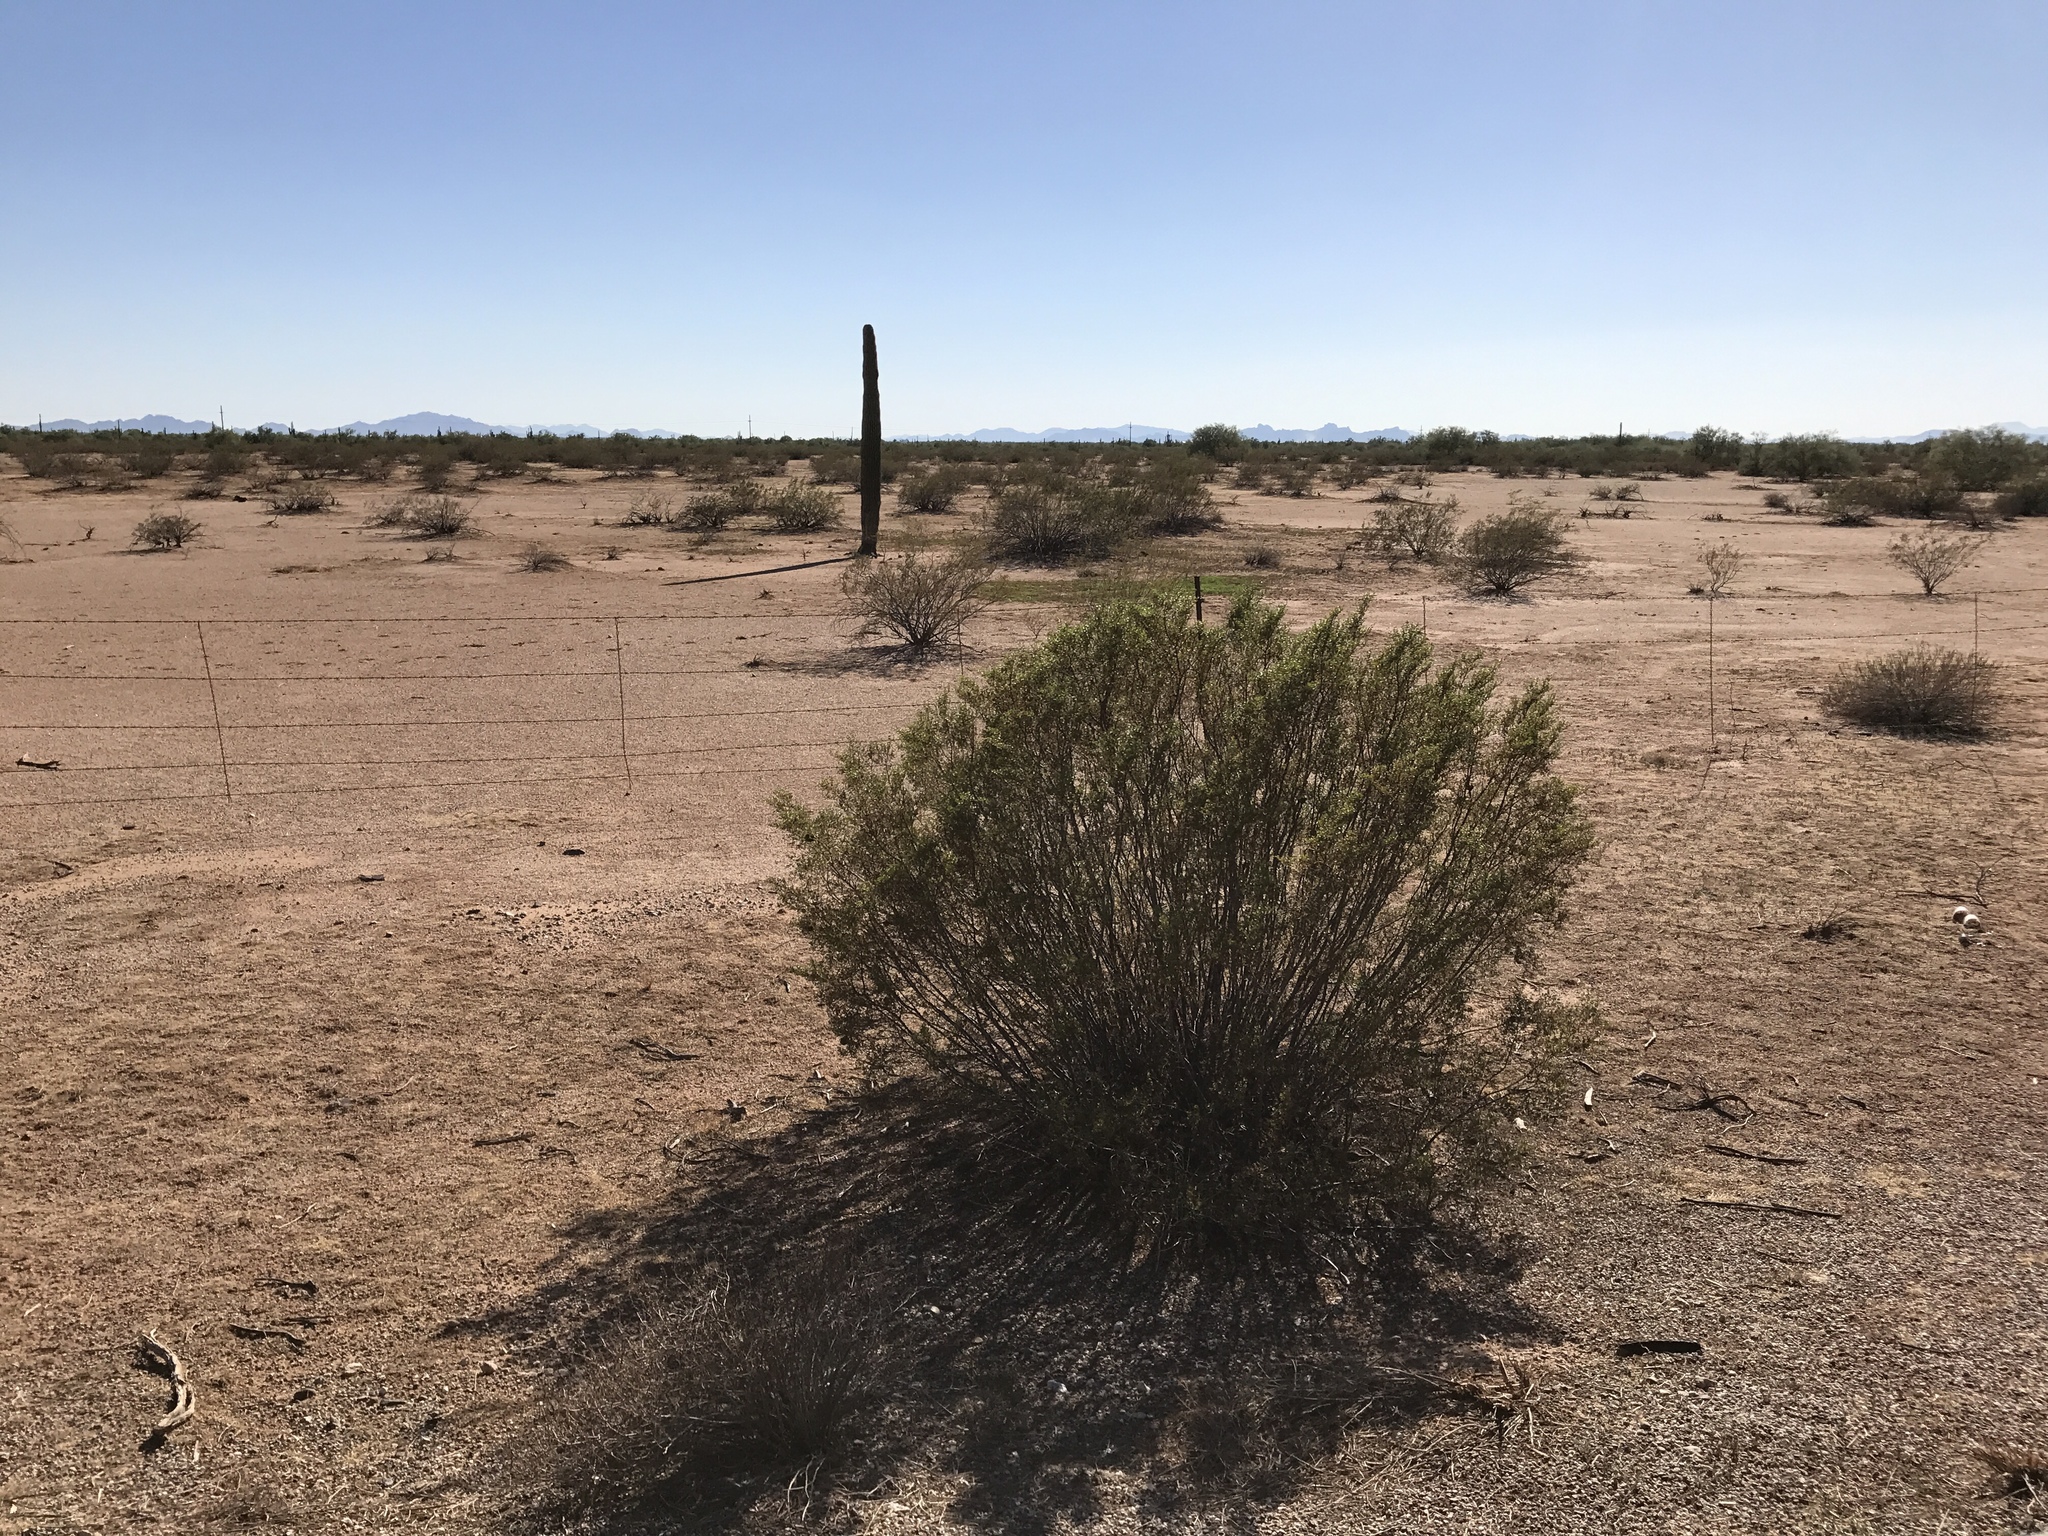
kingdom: Plantae
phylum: Tracheophyta
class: Magnoliopsida
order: Zygophyllales
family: Zygophyllaceae
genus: Larrea
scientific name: Larrea tridentata
